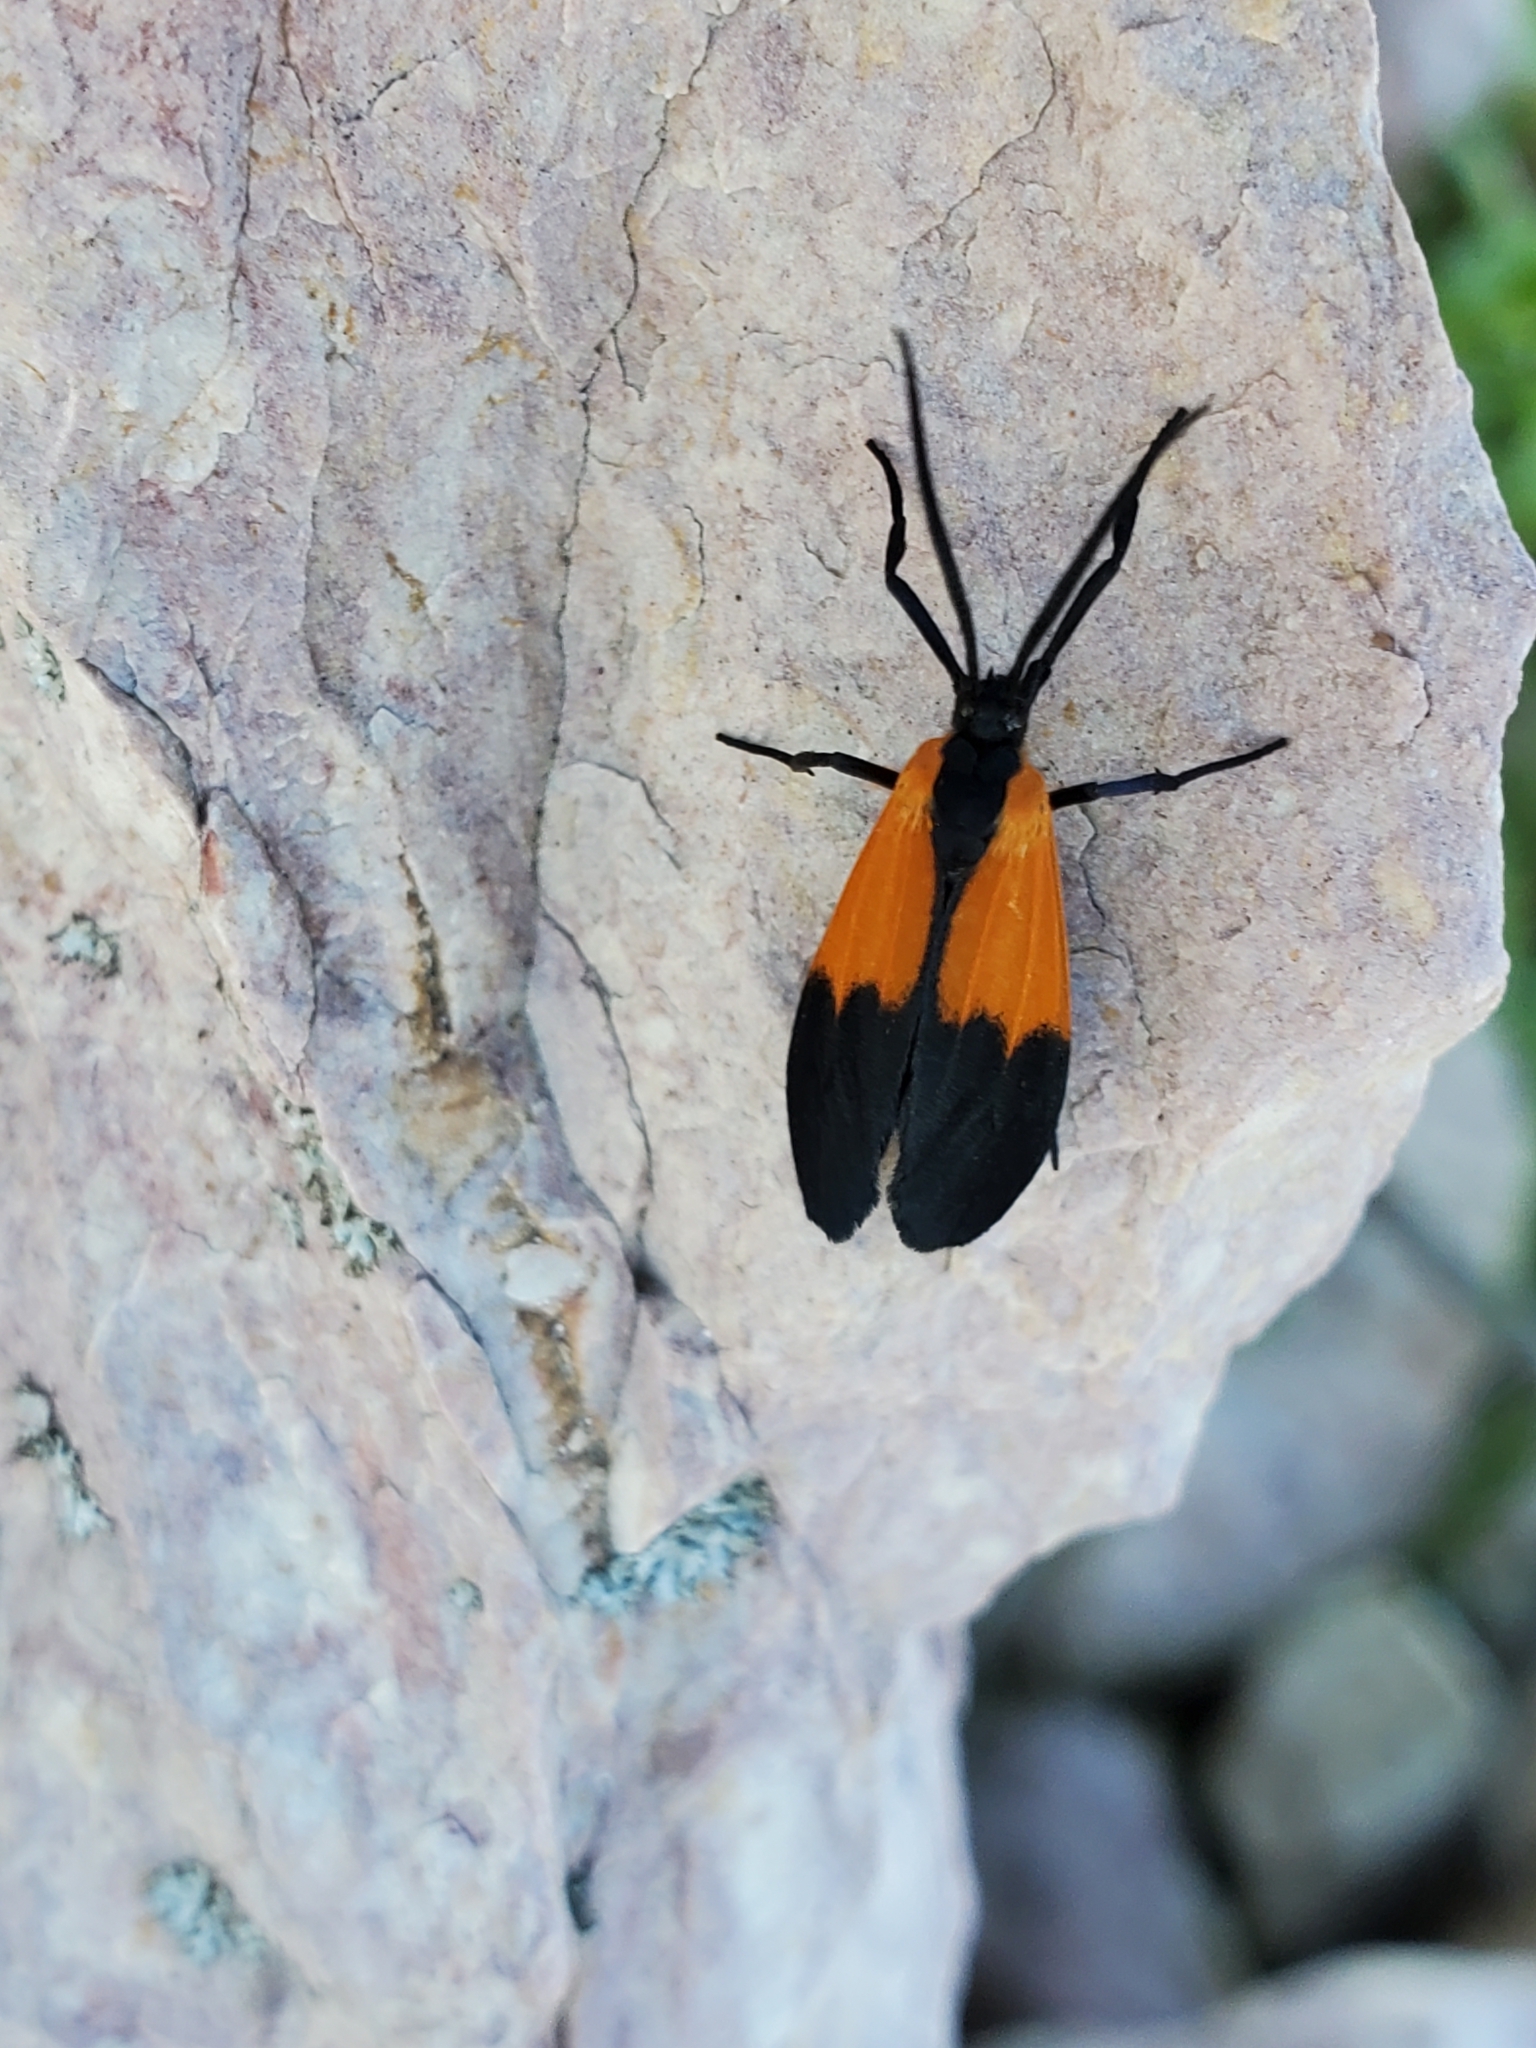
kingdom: Animalia
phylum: Arthropoda
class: Insecta
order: Lepidoptera
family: Erebidae
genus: Lycomorpha
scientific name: Lycomorpha pholus
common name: Black-and-yellow lichen moth
